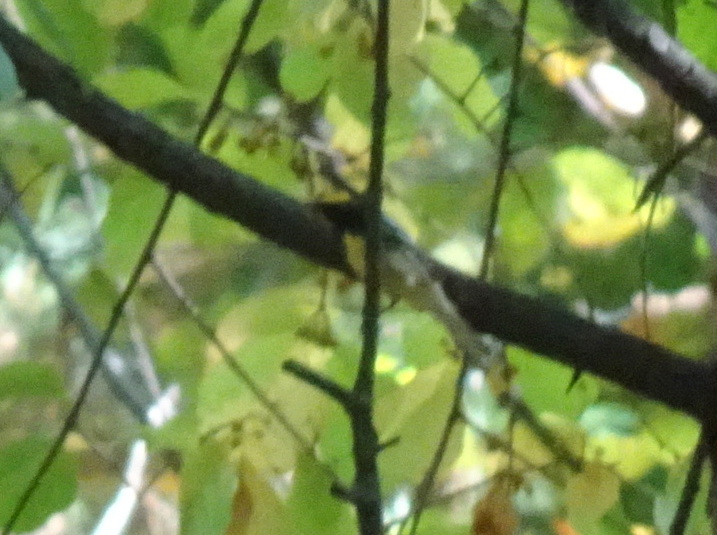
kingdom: Animalia
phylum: Chordata
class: Aves
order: Passeriformes
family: Parulidae
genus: Setophaga
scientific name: Setophaga virens
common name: Black-throated green warbler
